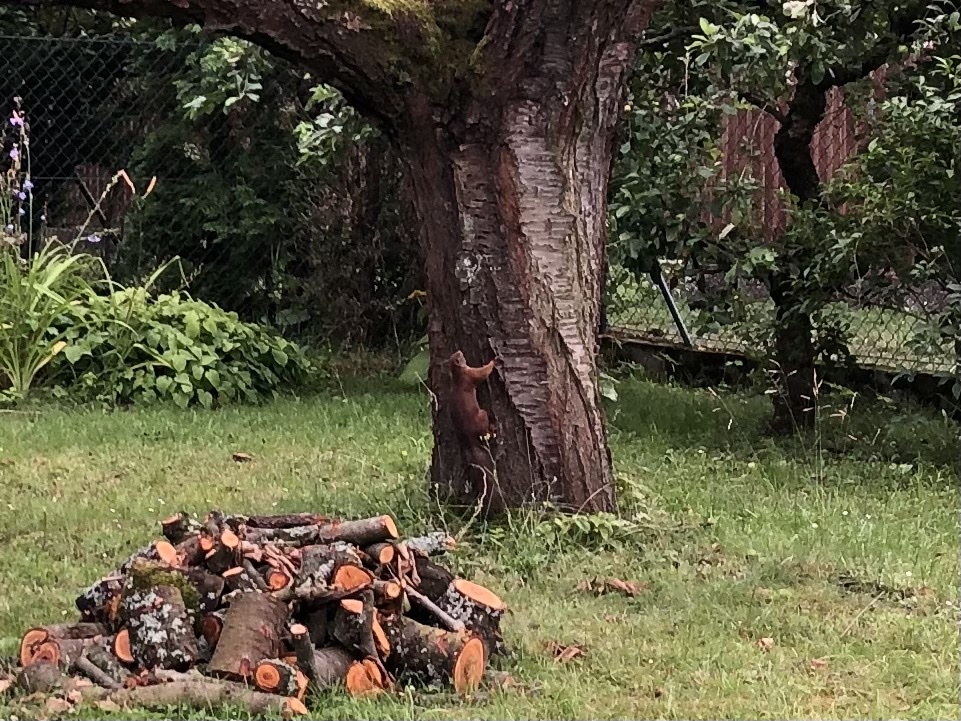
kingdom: Animalia
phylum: Chordata
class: Mammalia
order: Rodentia
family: Sciuridae
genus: Sciurus
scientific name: Sciurus vulgaris
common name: Eurasian red squirrel
